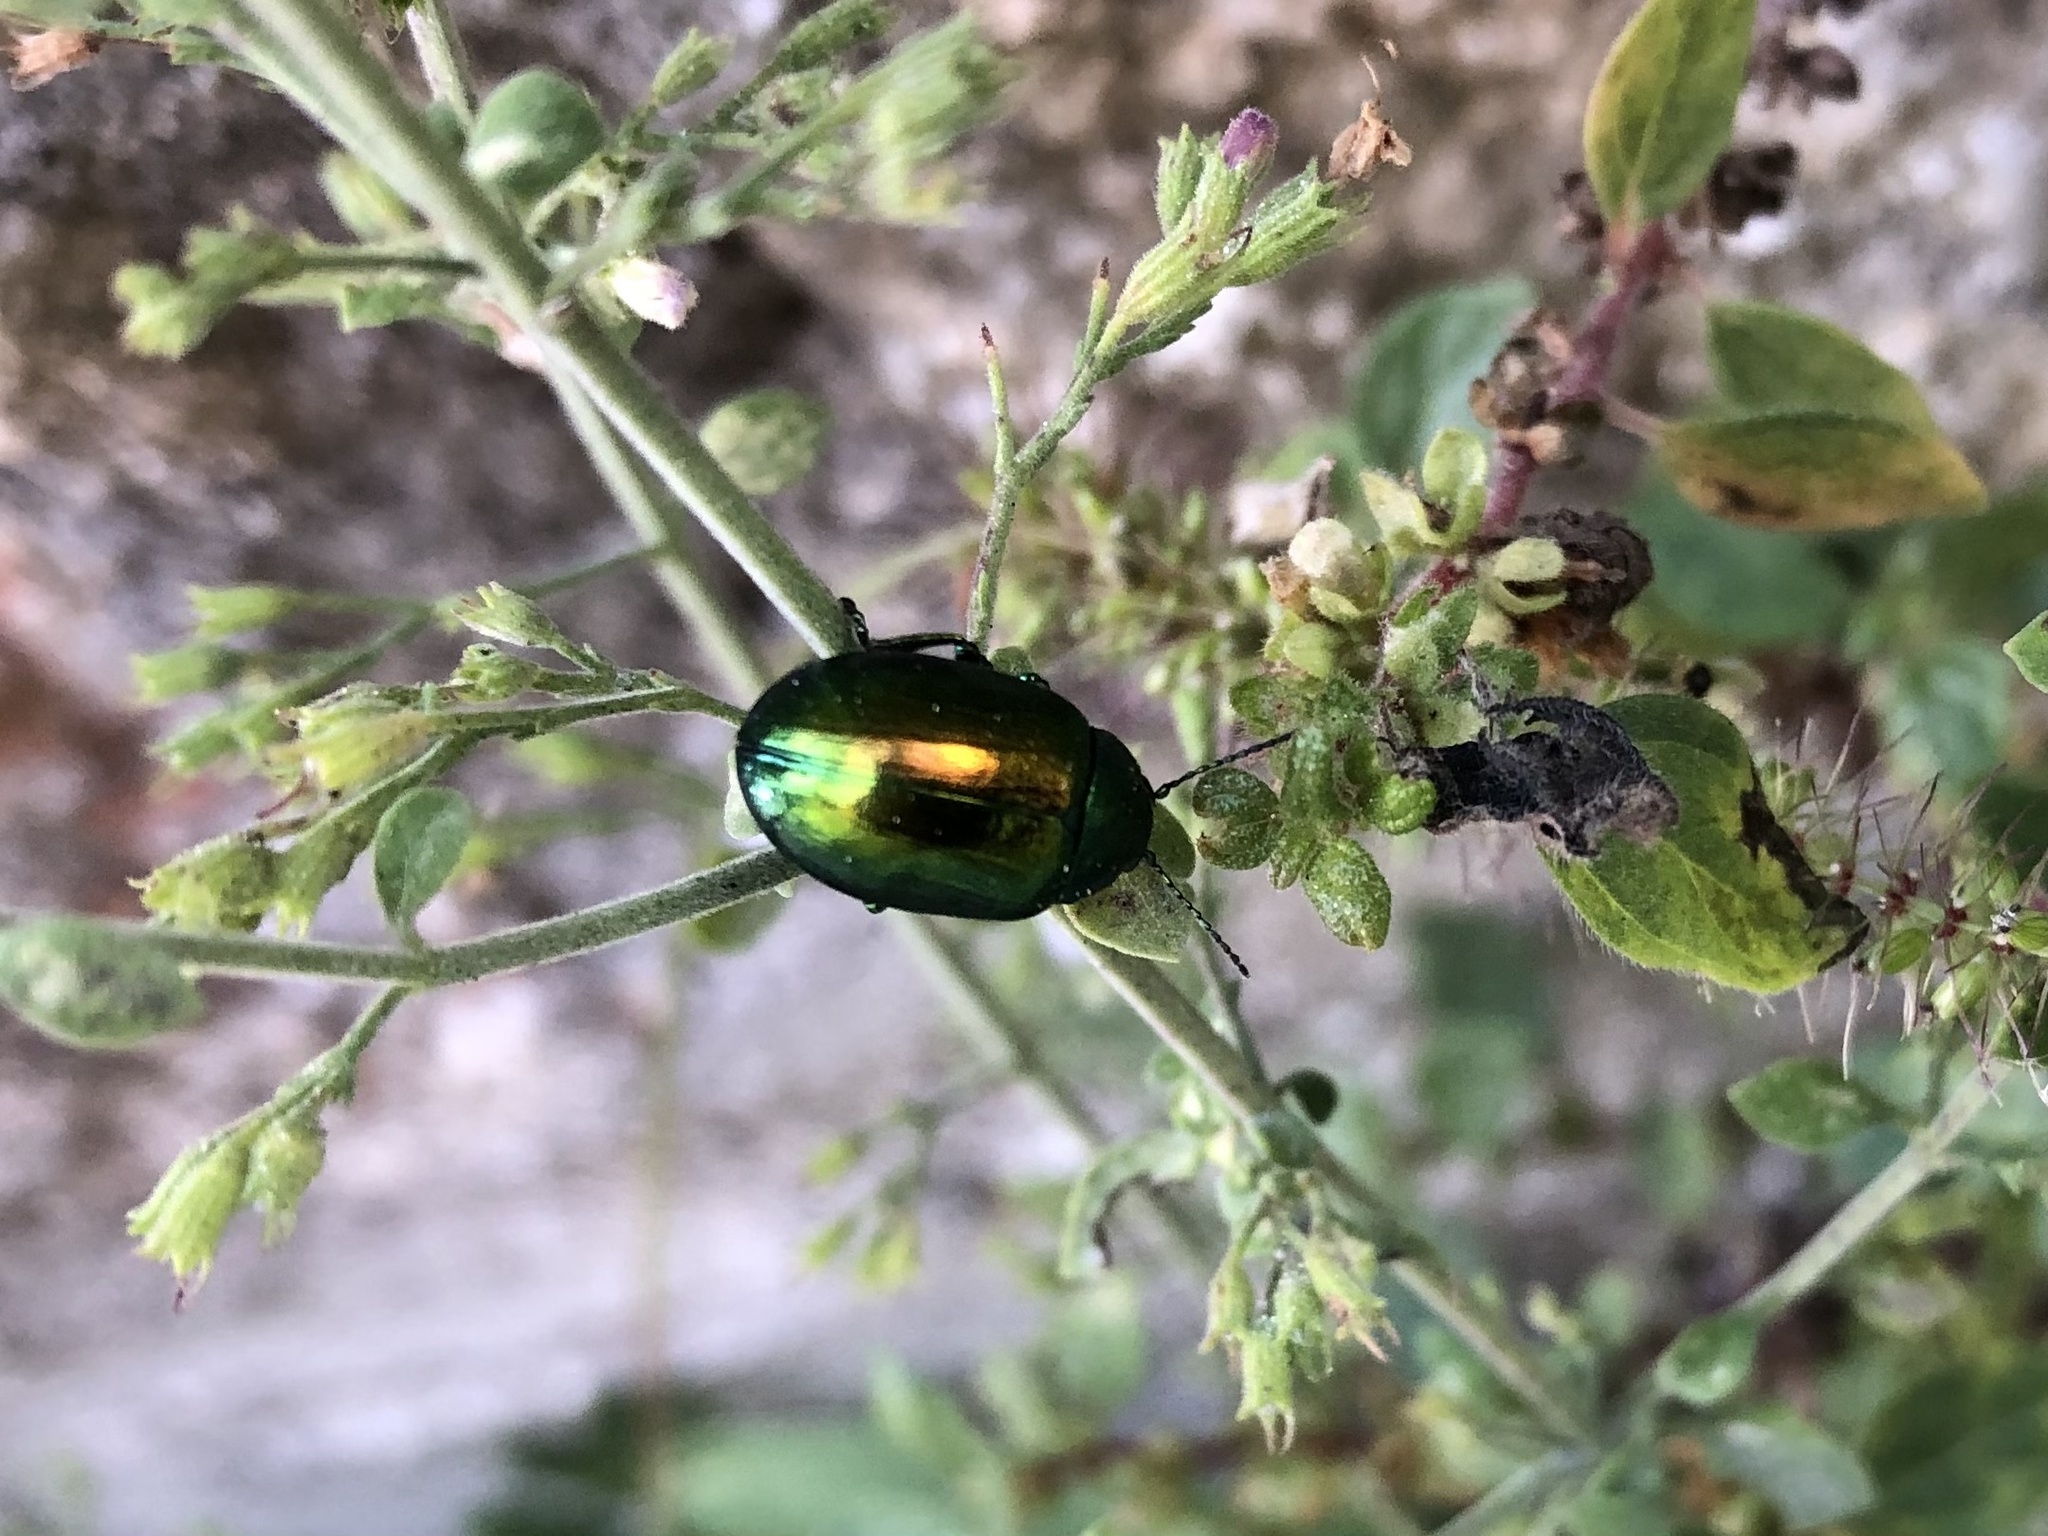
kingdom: Animalia
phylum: Arthropoda
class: Insecta
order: Coleoptera
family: Chrysomelidae
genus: Chrysolina
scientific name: Chrysolina herbacea
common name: Mint leaf beatle
